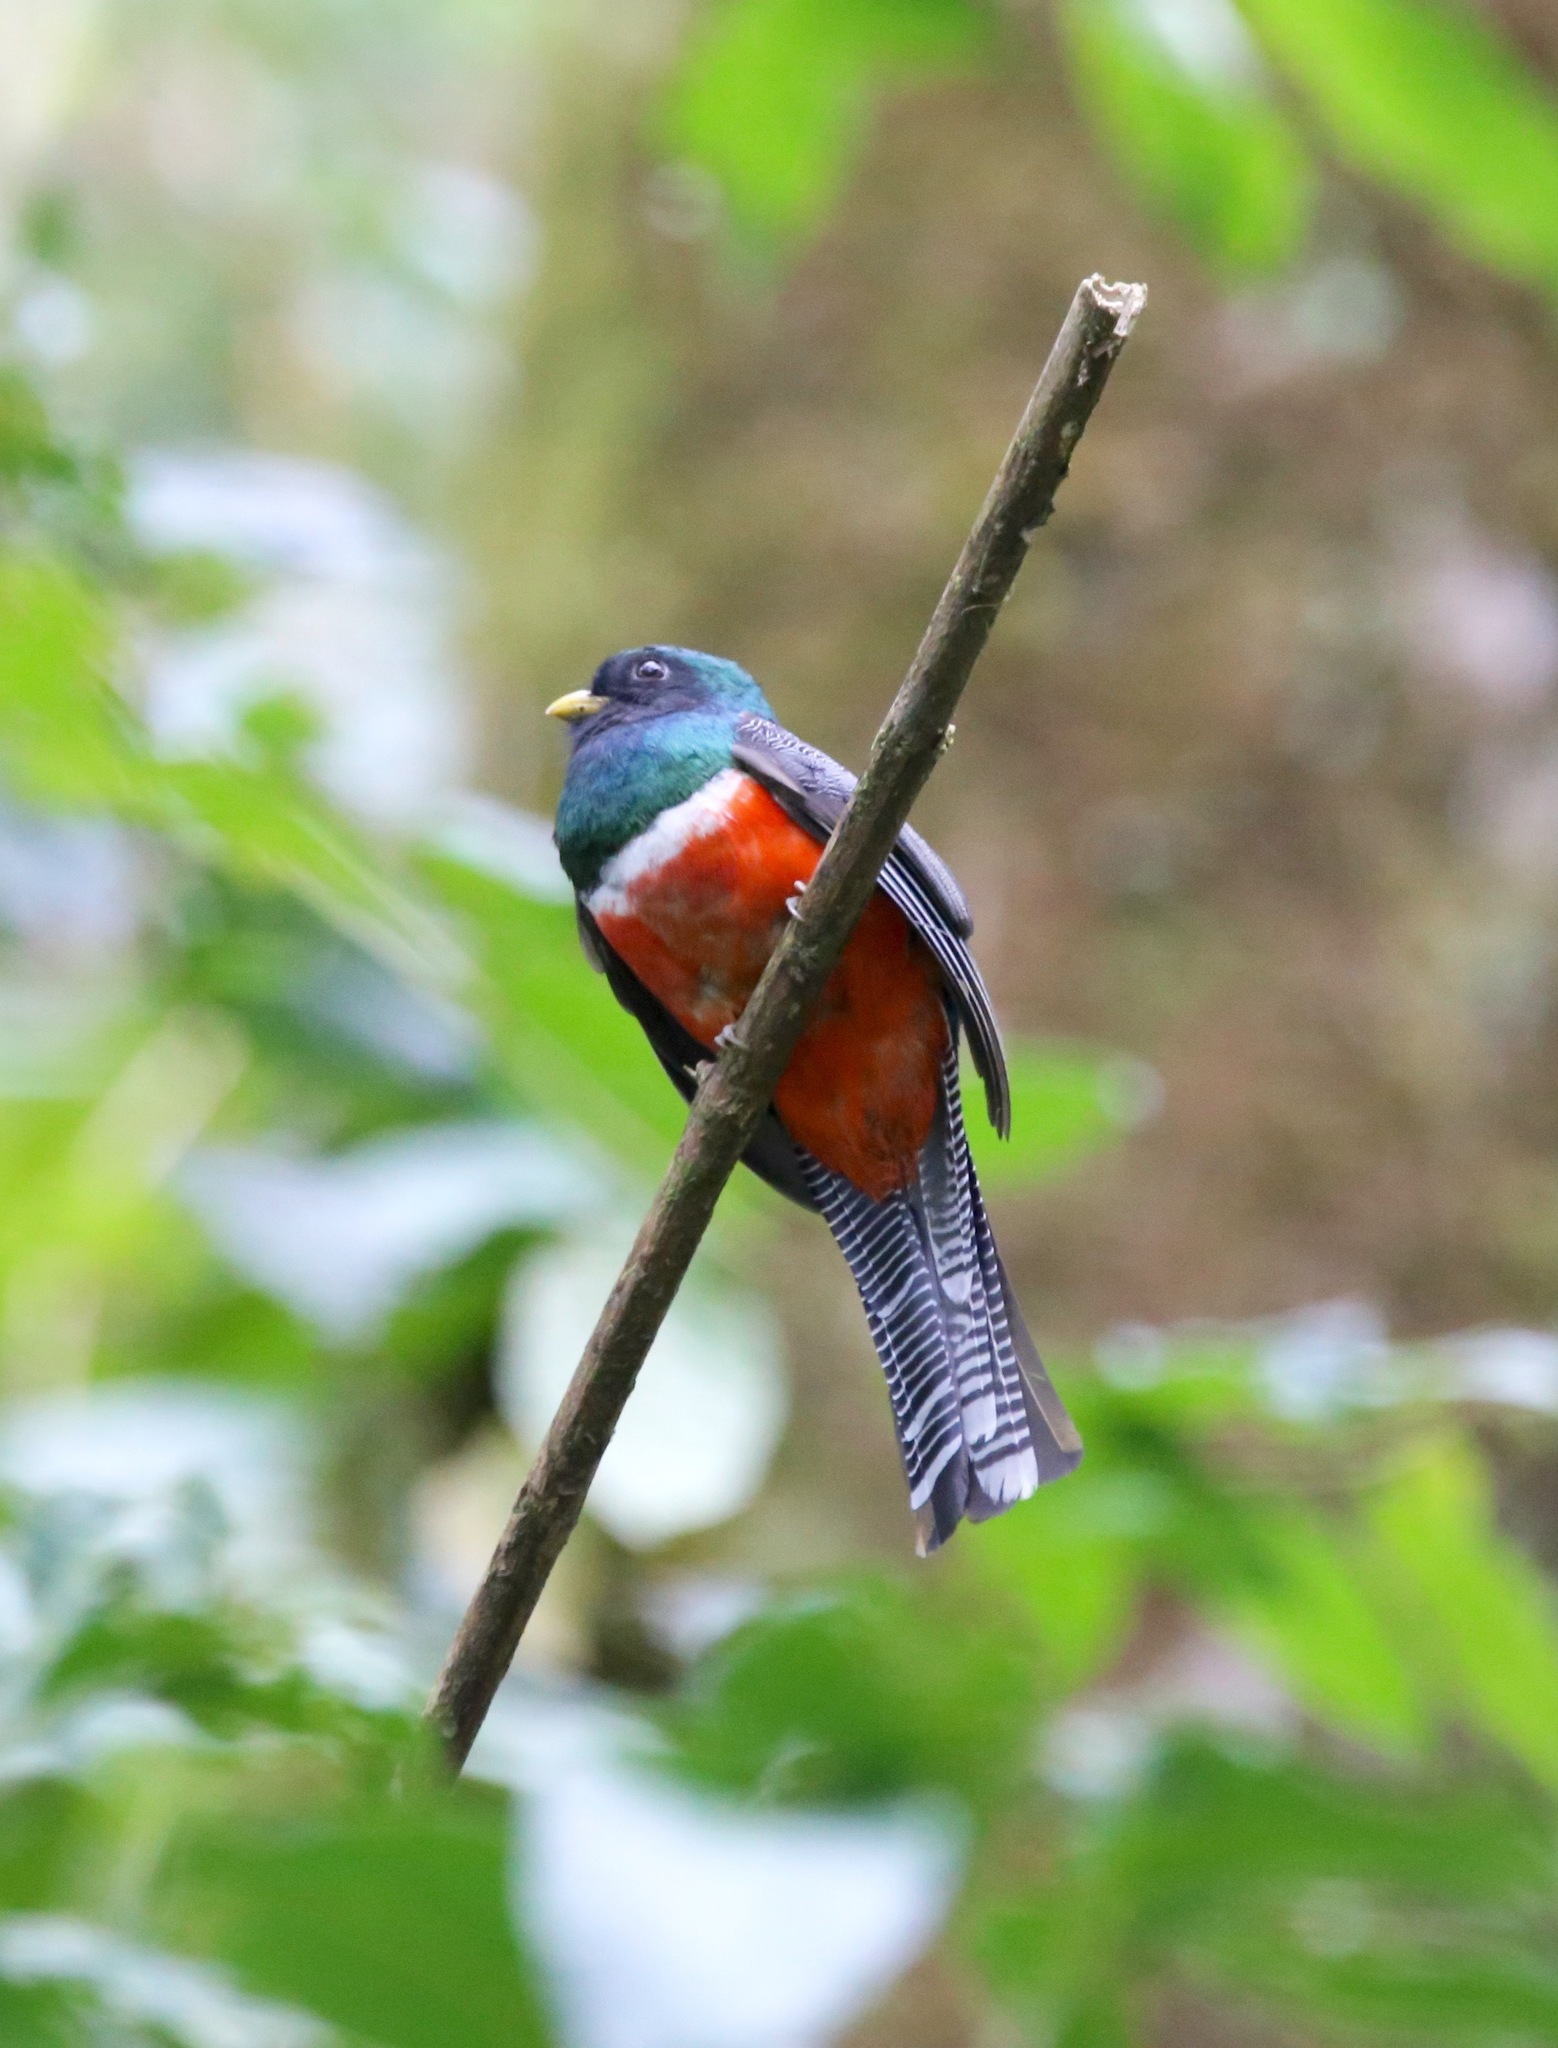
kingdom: Animalia
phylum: Chordata
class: Aves
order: Trogoniformes
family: Trogonidae
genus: Trogon
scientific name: Trogon collaris
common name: Collared trogon
